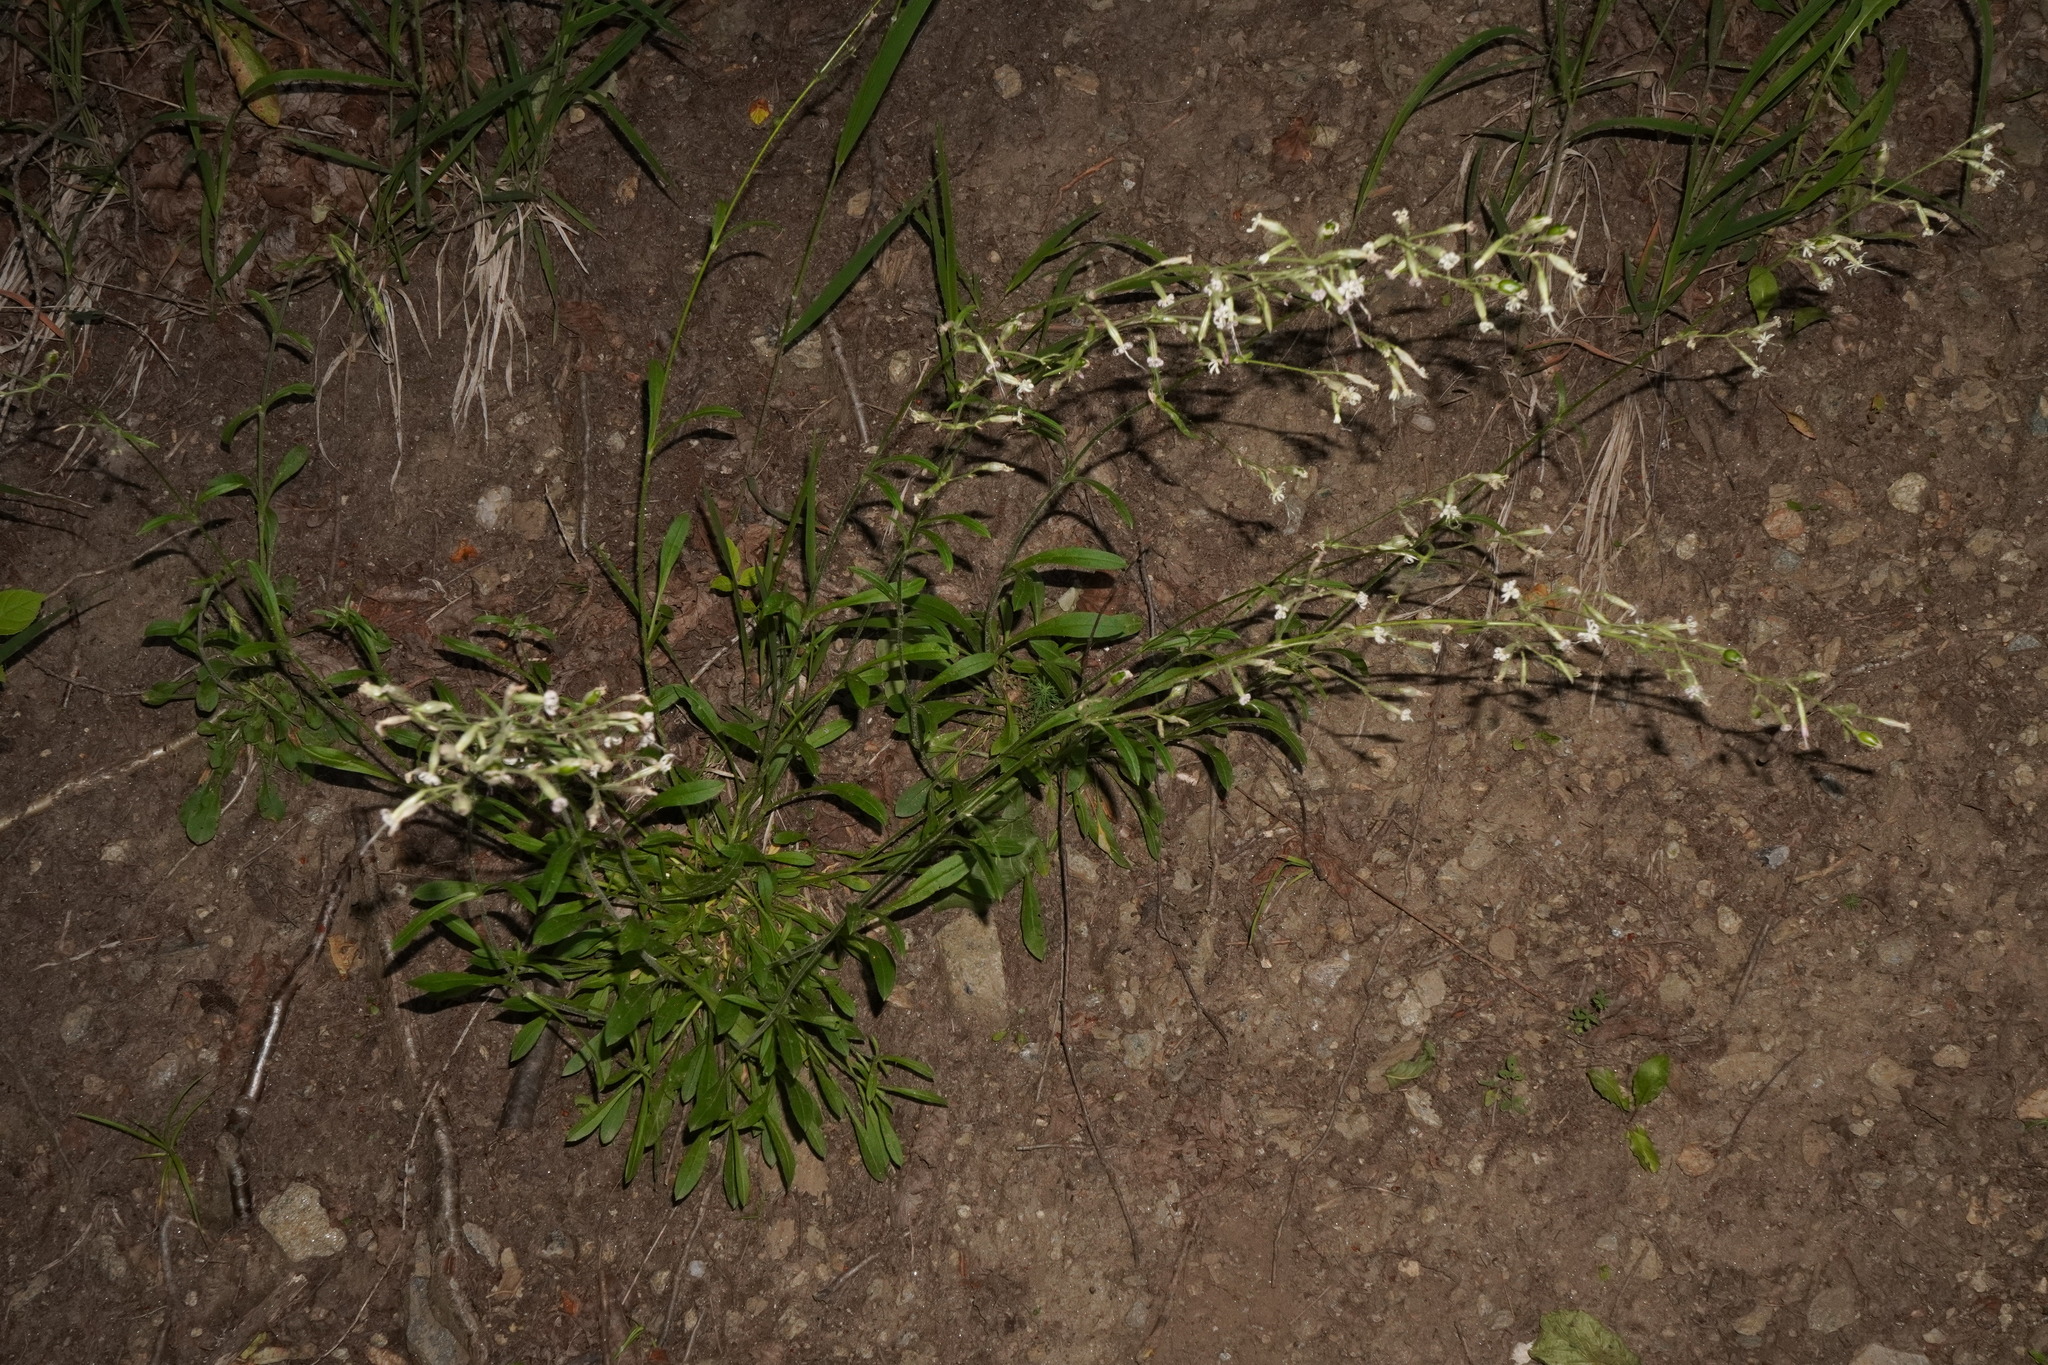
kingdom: Plantae
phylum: Tracheophyta
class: Magnoliopsida
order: Caryophyllales
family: Caryophyllaceae
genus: Silene
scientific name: Silene nutans
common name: Nottingham catchfly
